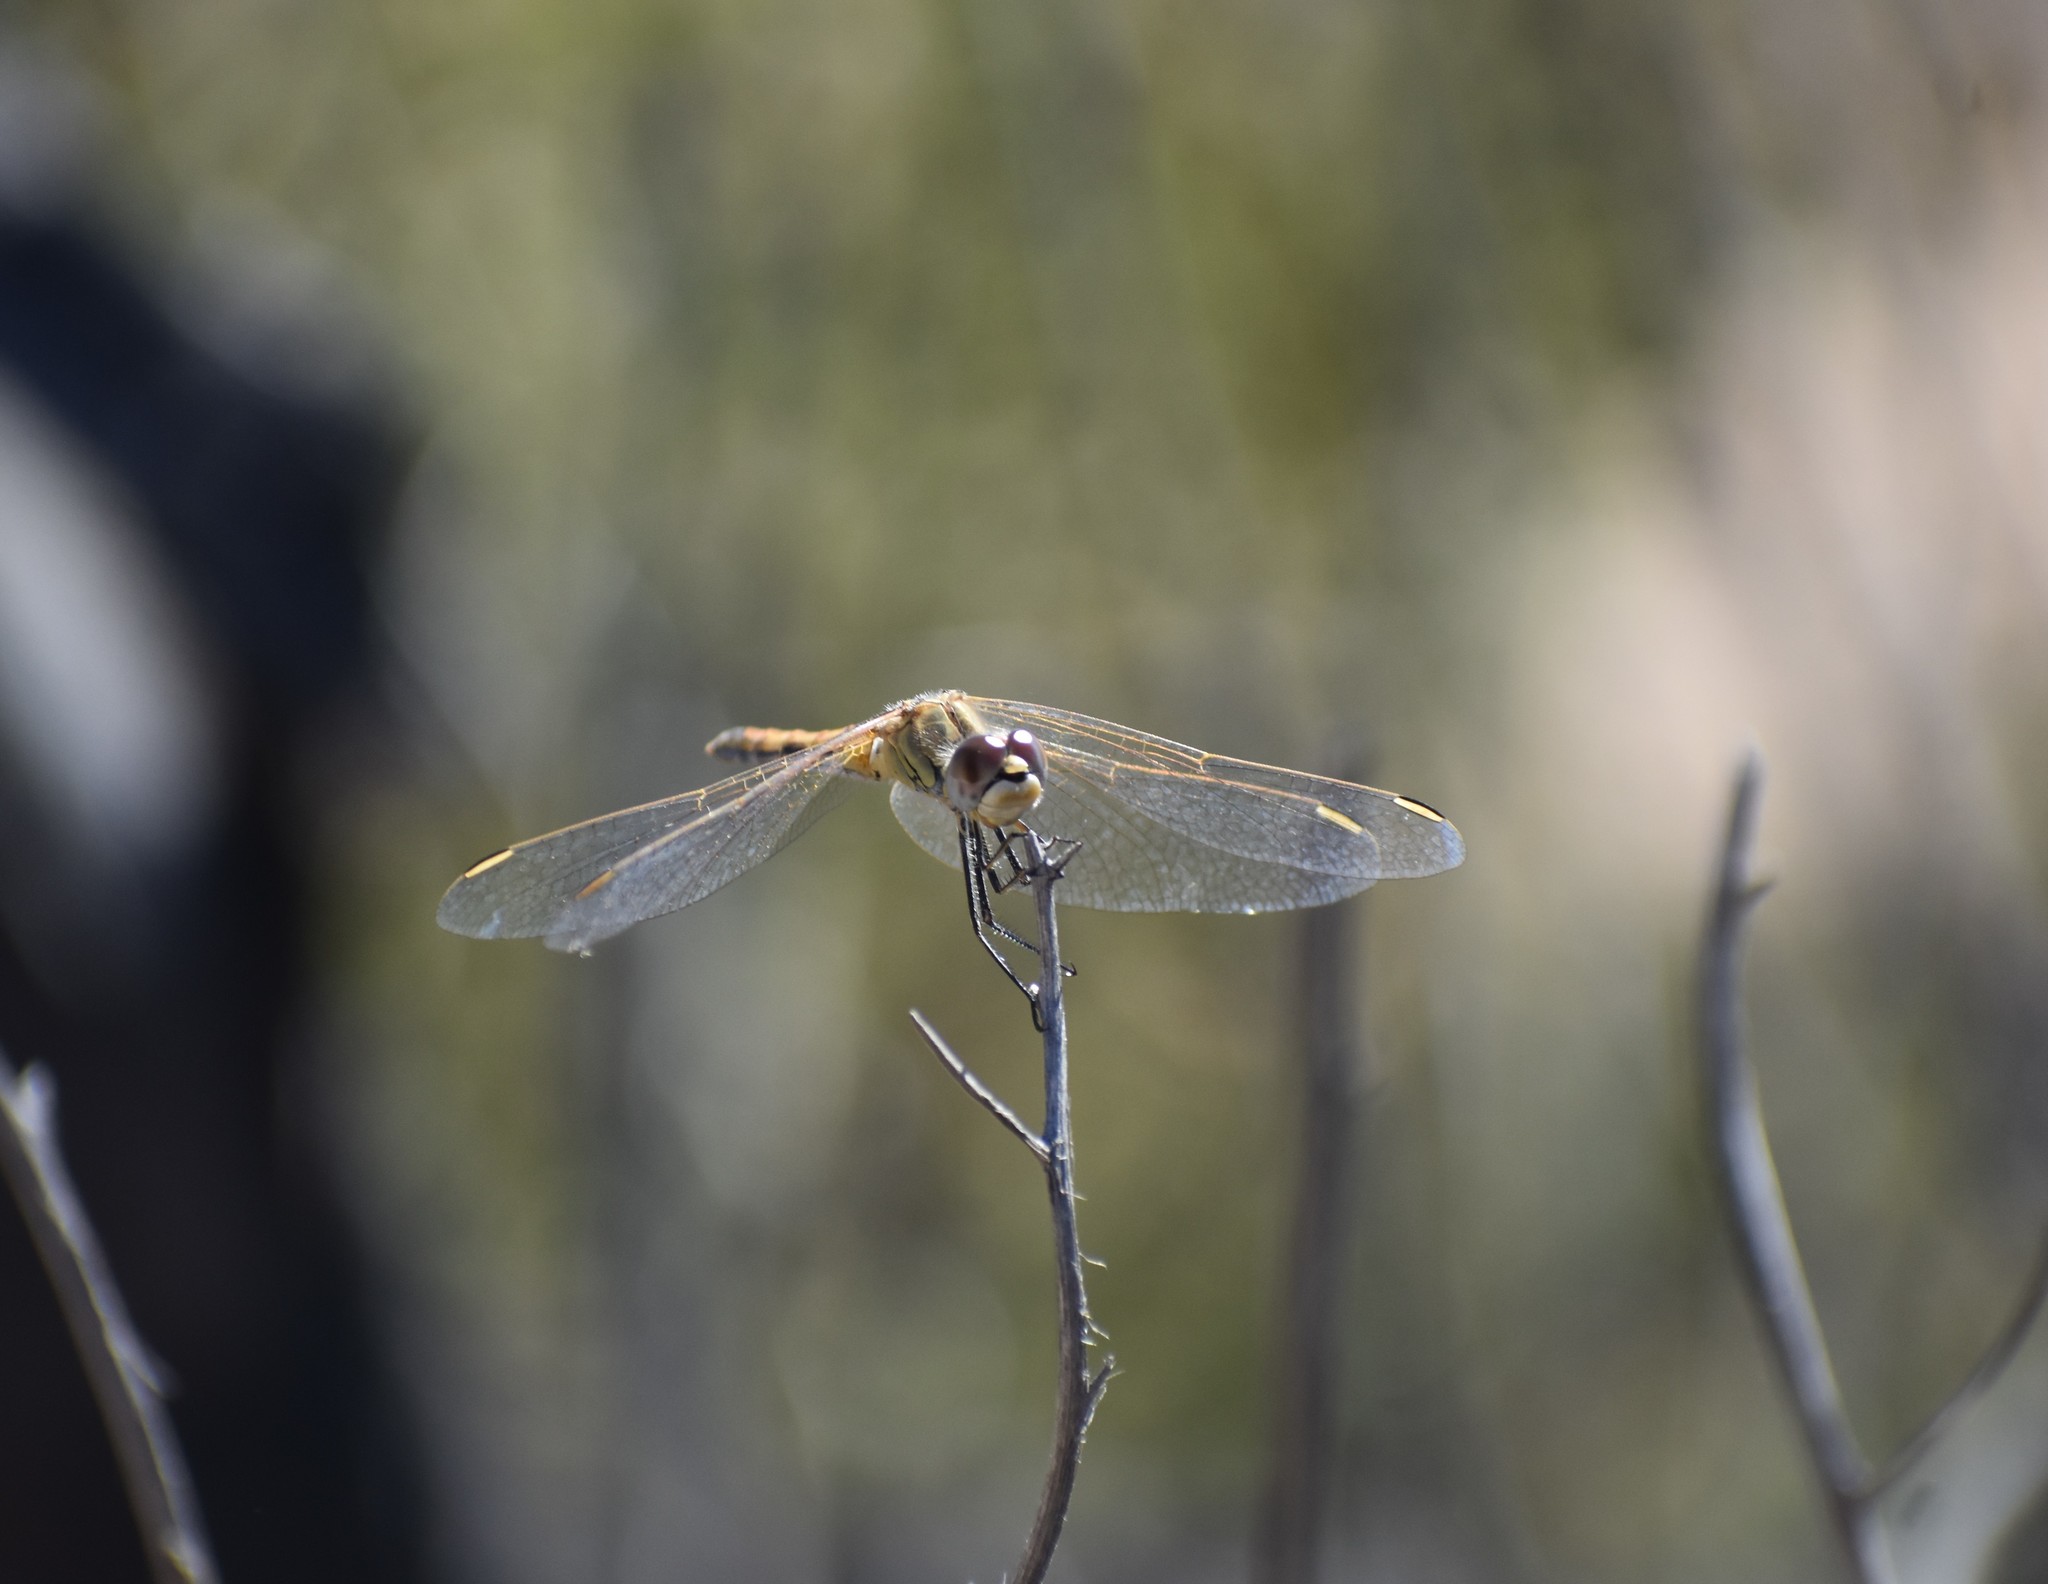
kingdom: Animalia
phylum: Arthropoda
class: Insecta
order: Odonata
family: Libellulidae
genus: Sympetrum
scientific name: Sympetrum fonscolombii
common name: Red-veined darter
